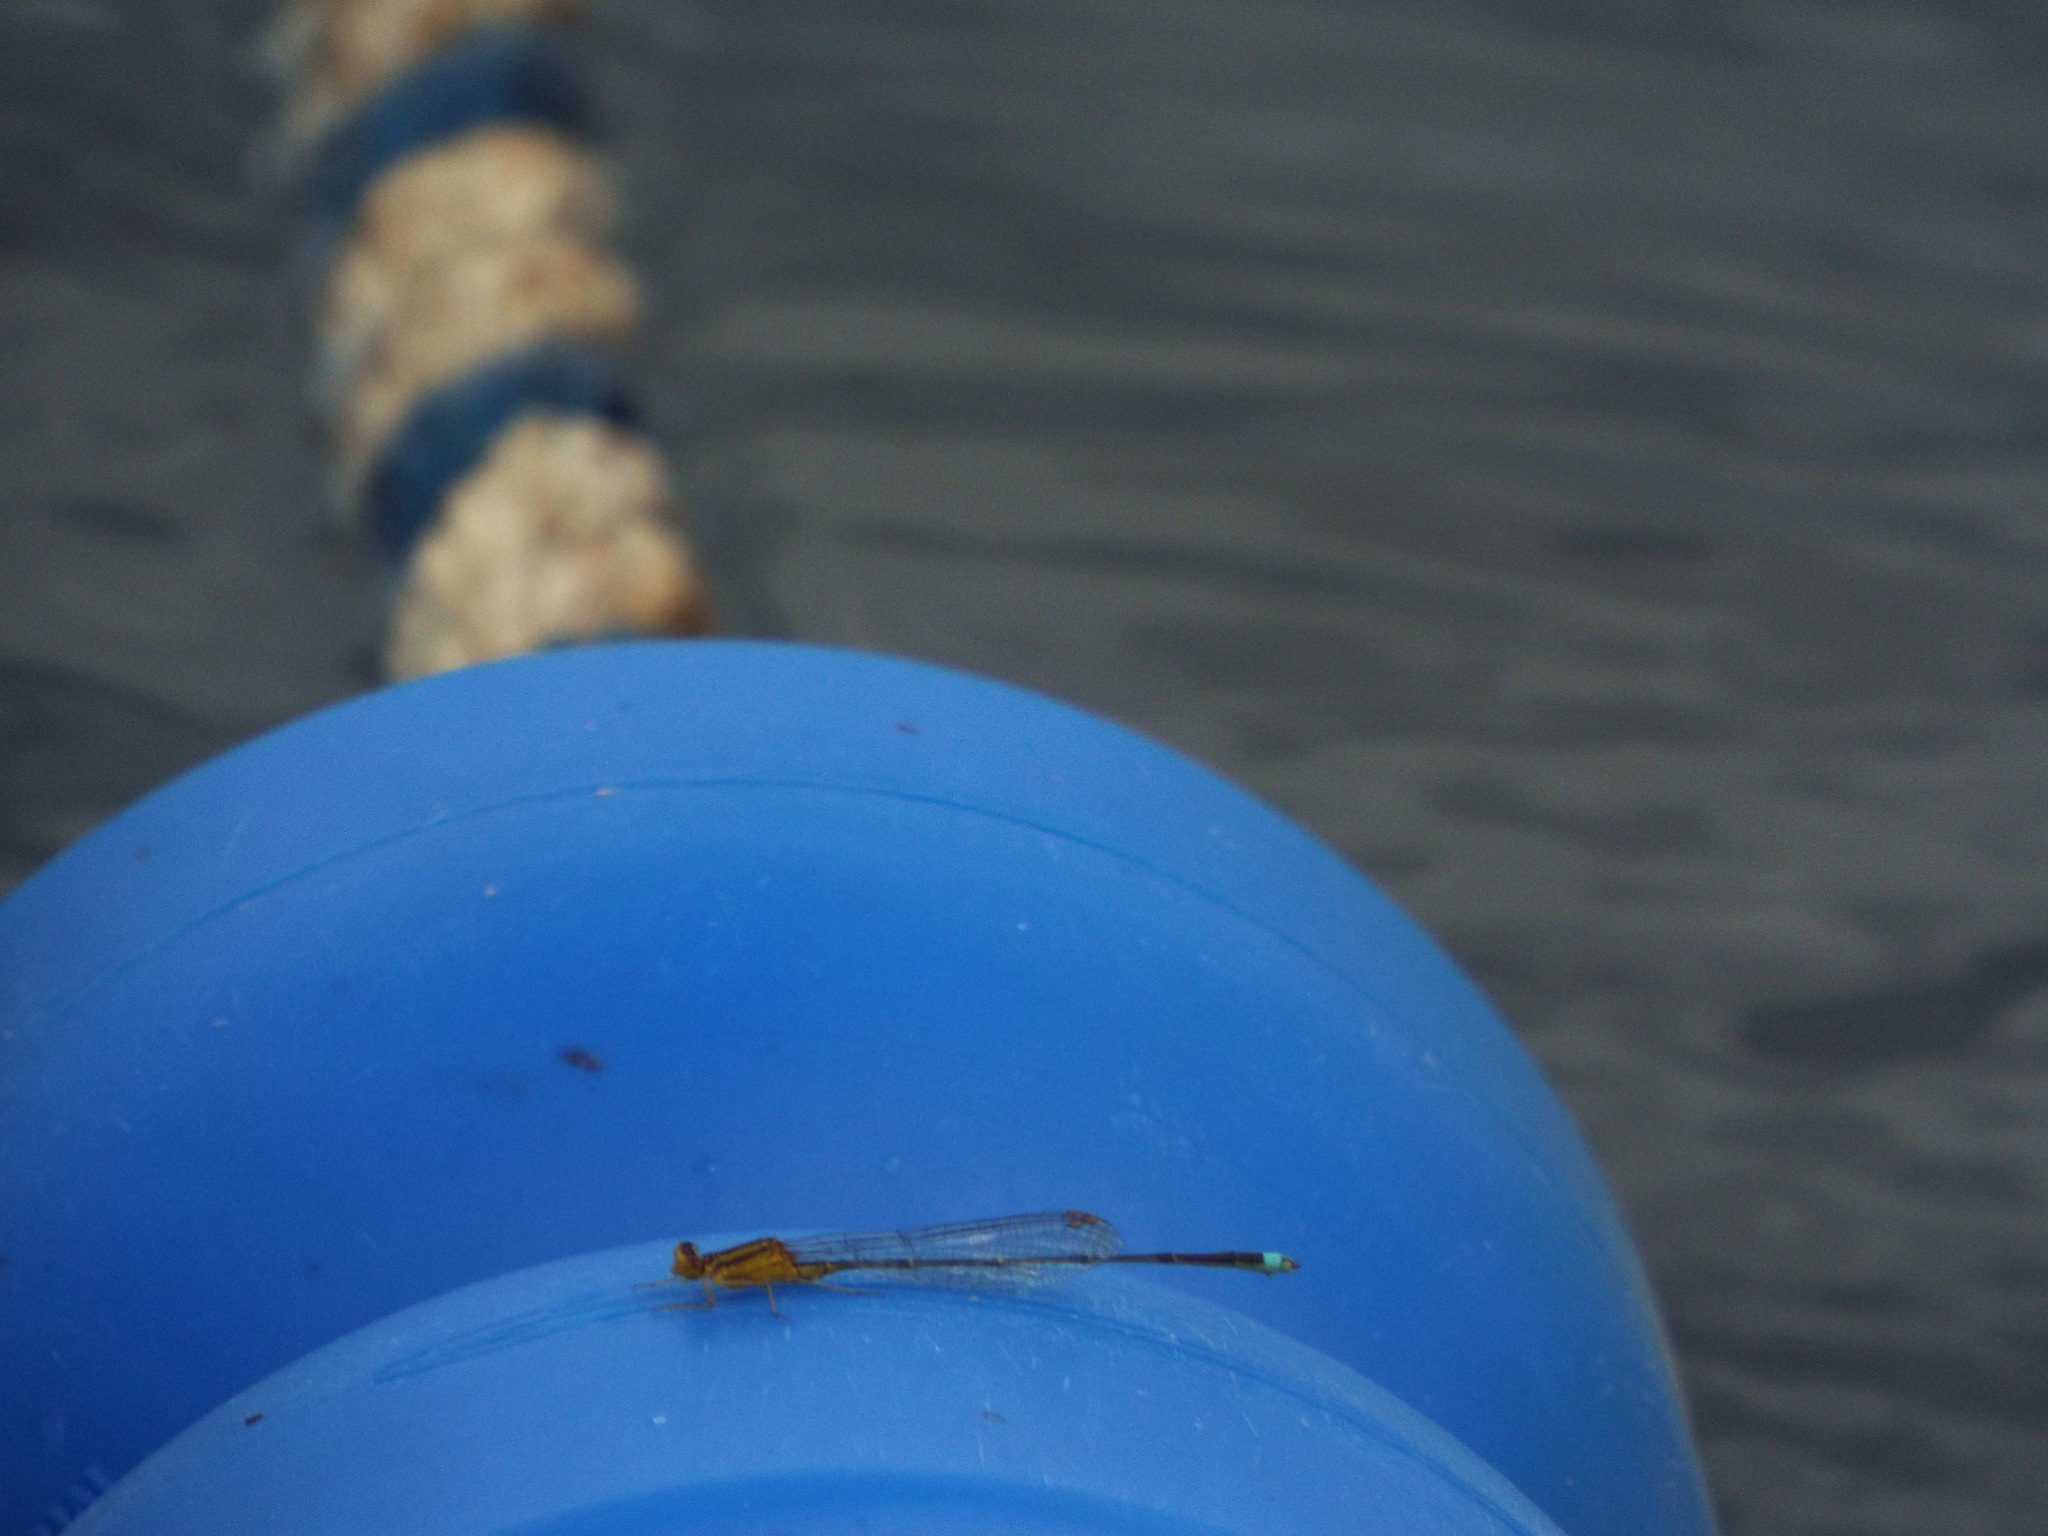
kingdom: Animalia
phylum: Arthropoda
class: Insecta
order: Odonata
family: Coenagrionidae
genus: Enallagma
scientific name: Enallagma signatum
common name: Orange bluet
